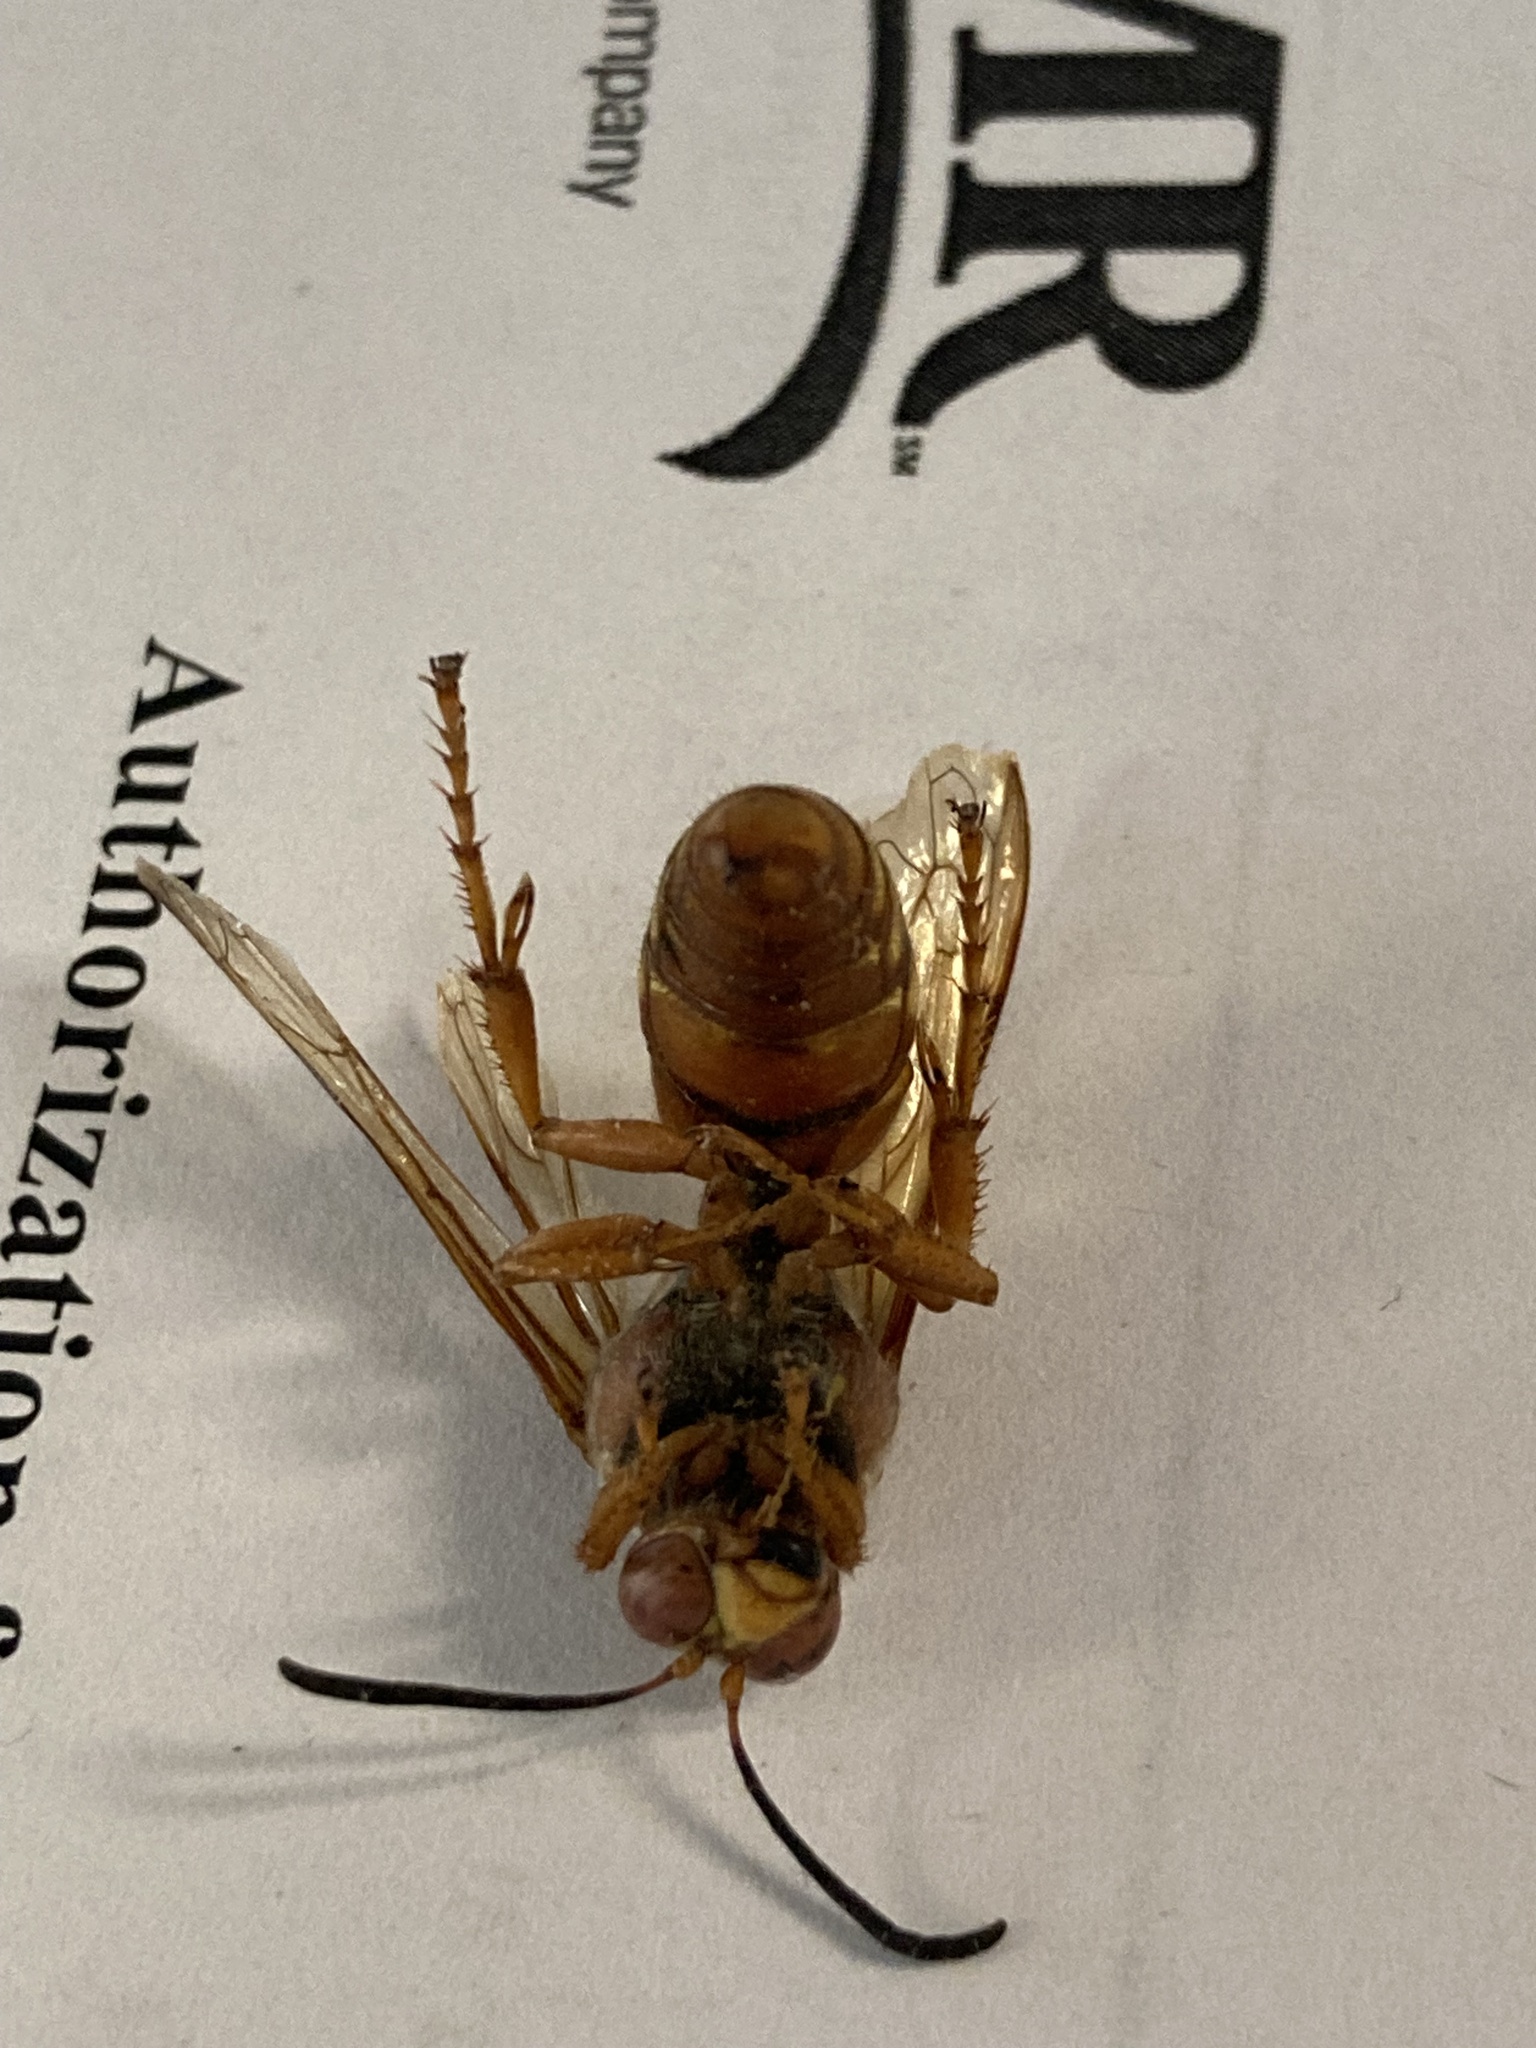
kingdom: Animalia
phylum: Arthropoda
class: Insecta
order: Hymenoptera
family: Crabronidae
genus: Sphecius
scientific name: Sphecius grandis
